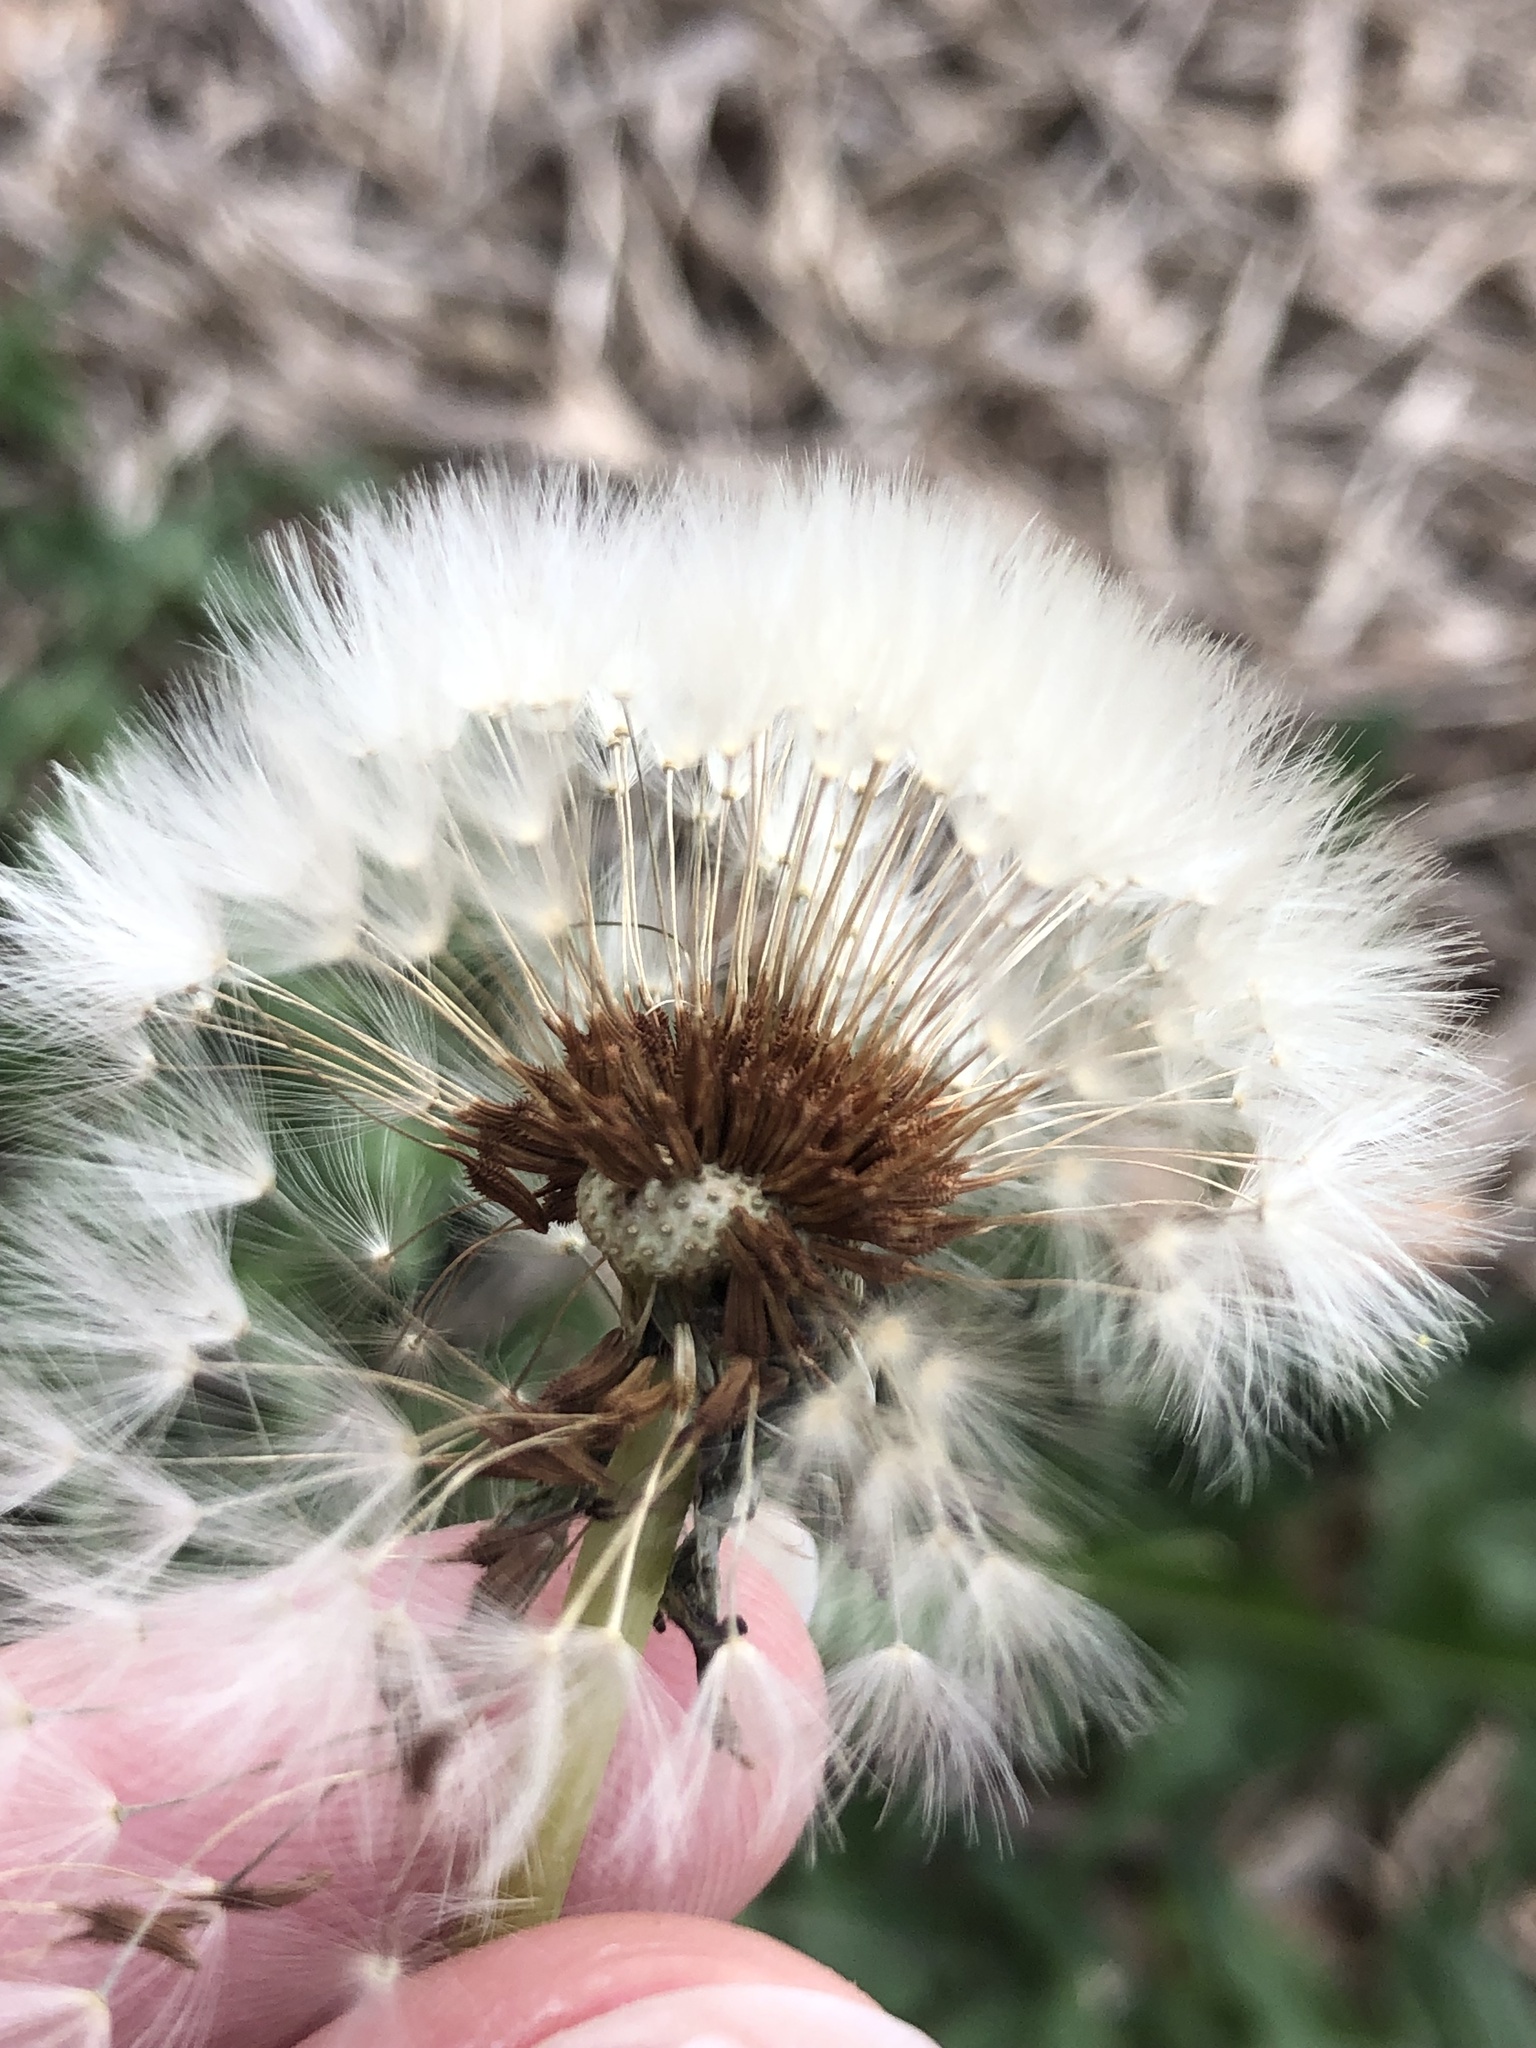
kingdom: Plantae
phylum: Tracheophyta
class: Magnoliopsida
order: Asterales
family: Asteraceae
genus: Taraxacum
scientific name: Taraxacum erythrospermum
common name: Rock dandelion
